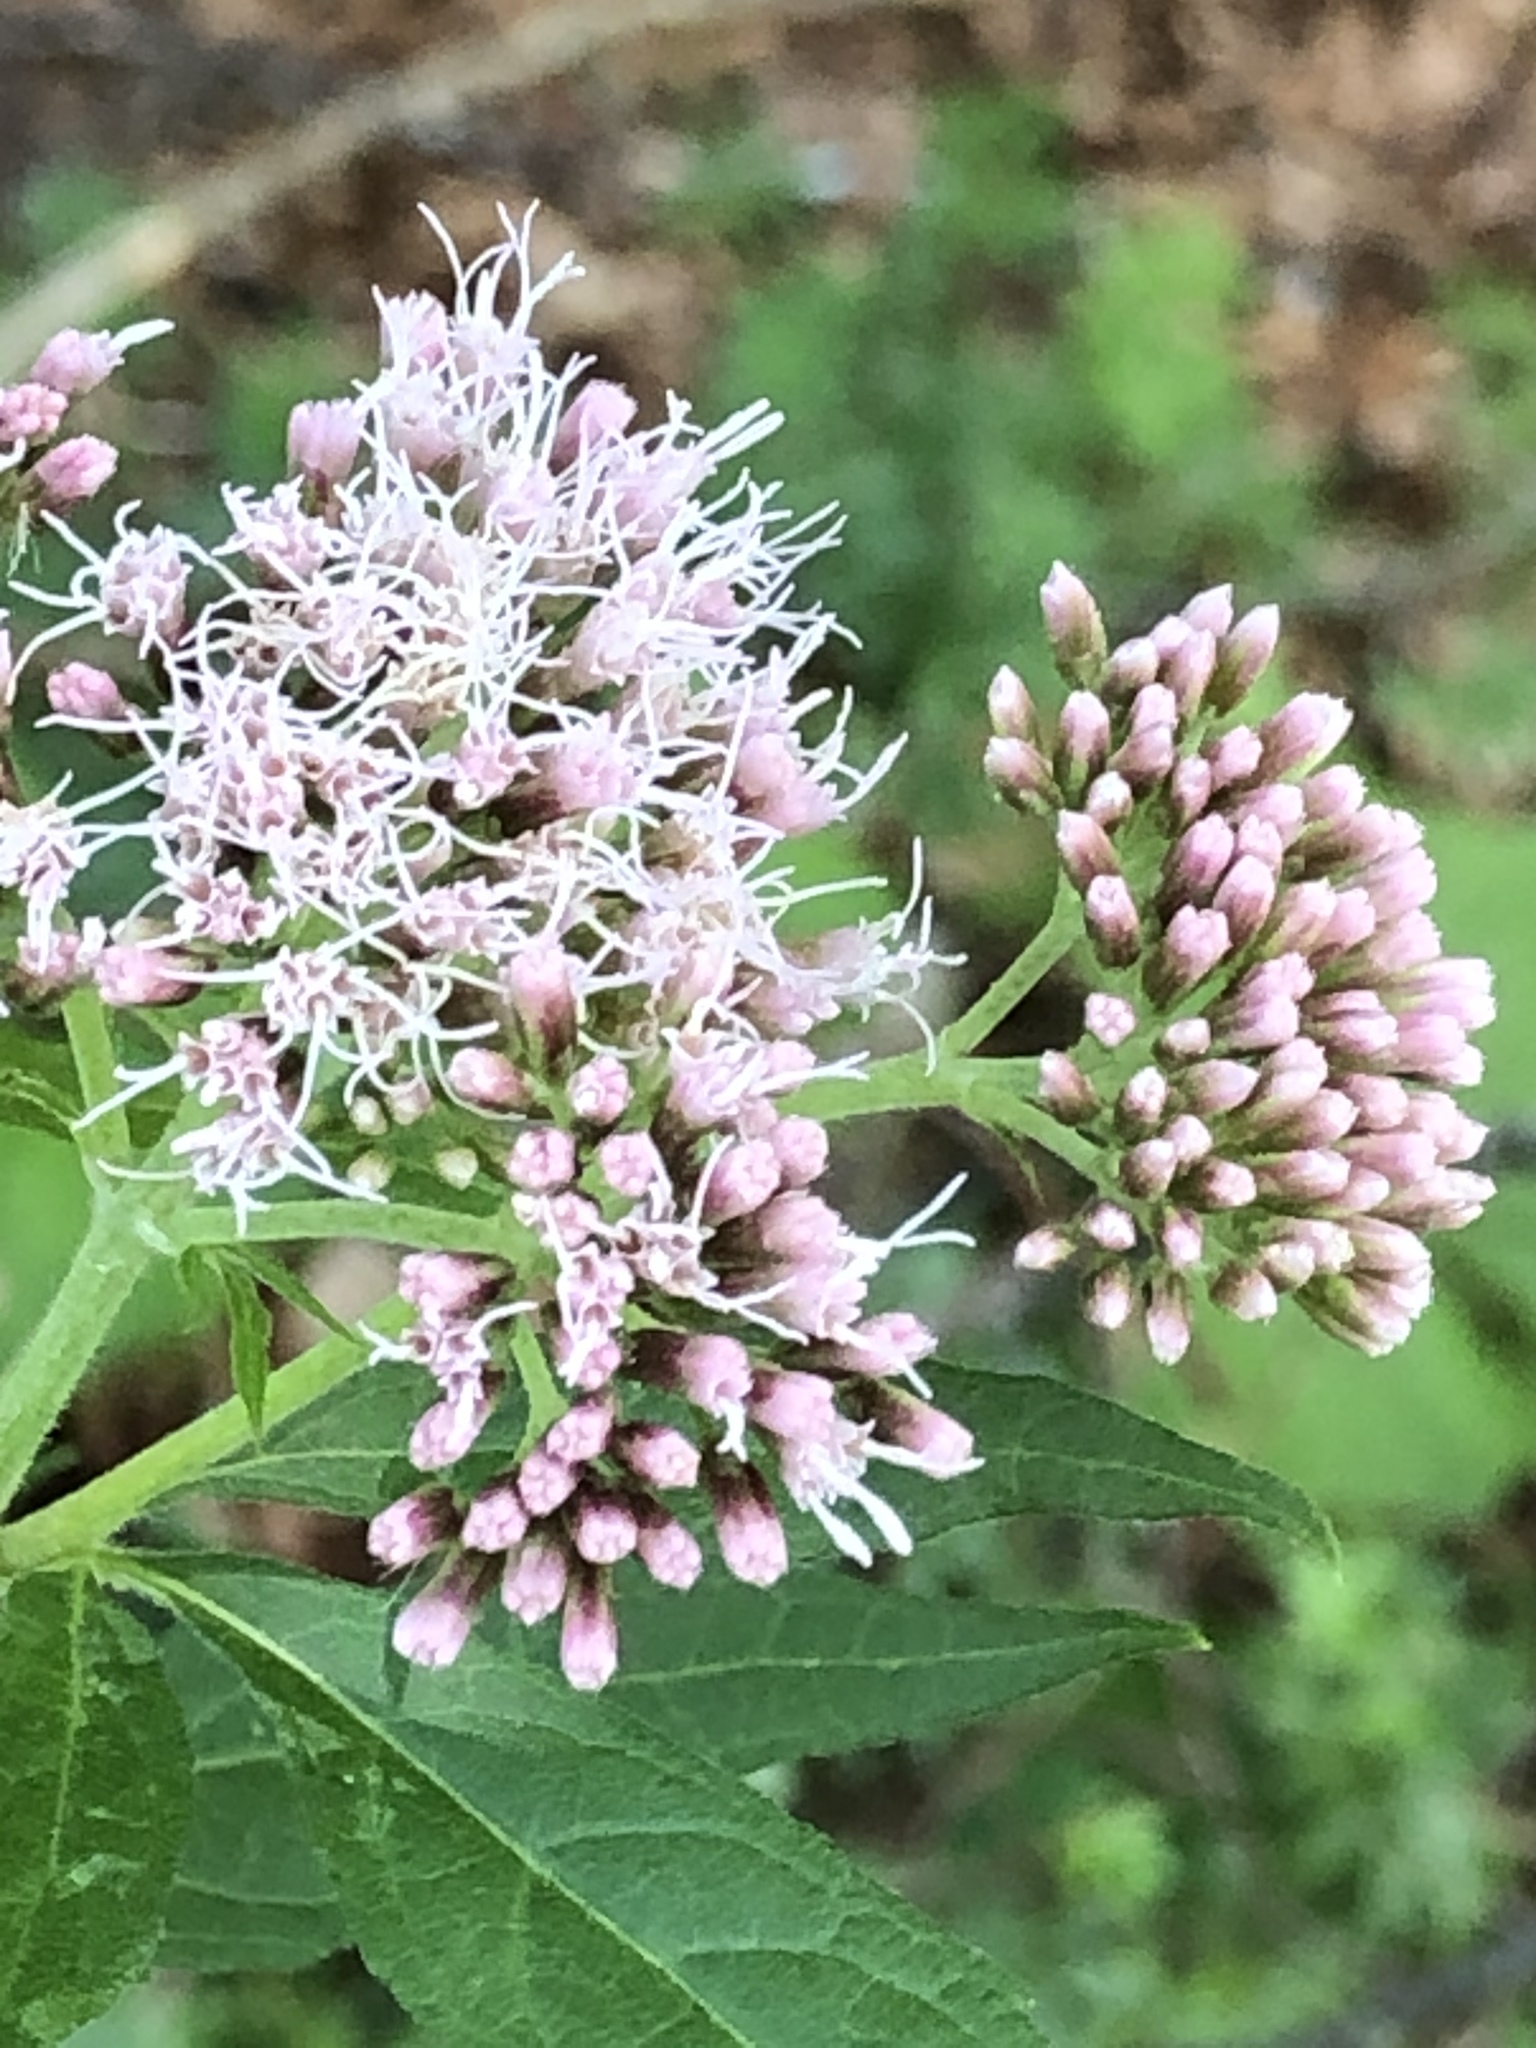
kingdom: Plantae
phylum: Tracheophyta
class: Magnoliopsida
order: Asterales
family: Asteraceae
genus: Eupatorium
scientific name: Eupatorium cannabinum
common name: Hemp-agrimony
